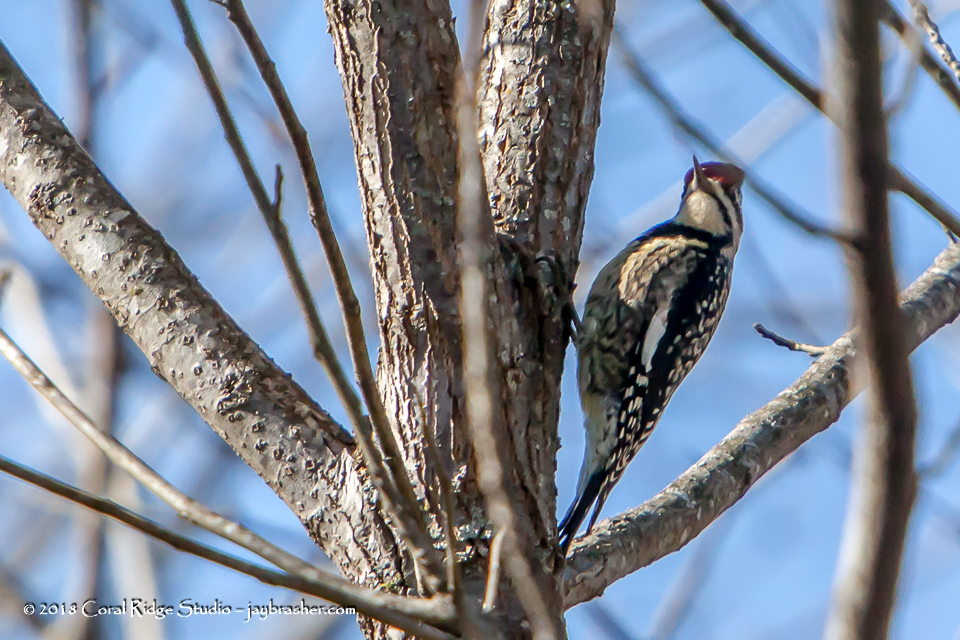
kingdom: Animalia
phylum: Chordata
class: Aves
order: Piciformes
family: Picidae
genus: Sphyrapicus
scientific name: Sphyrapicus varius
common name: Yellow-bellied sapsucker
